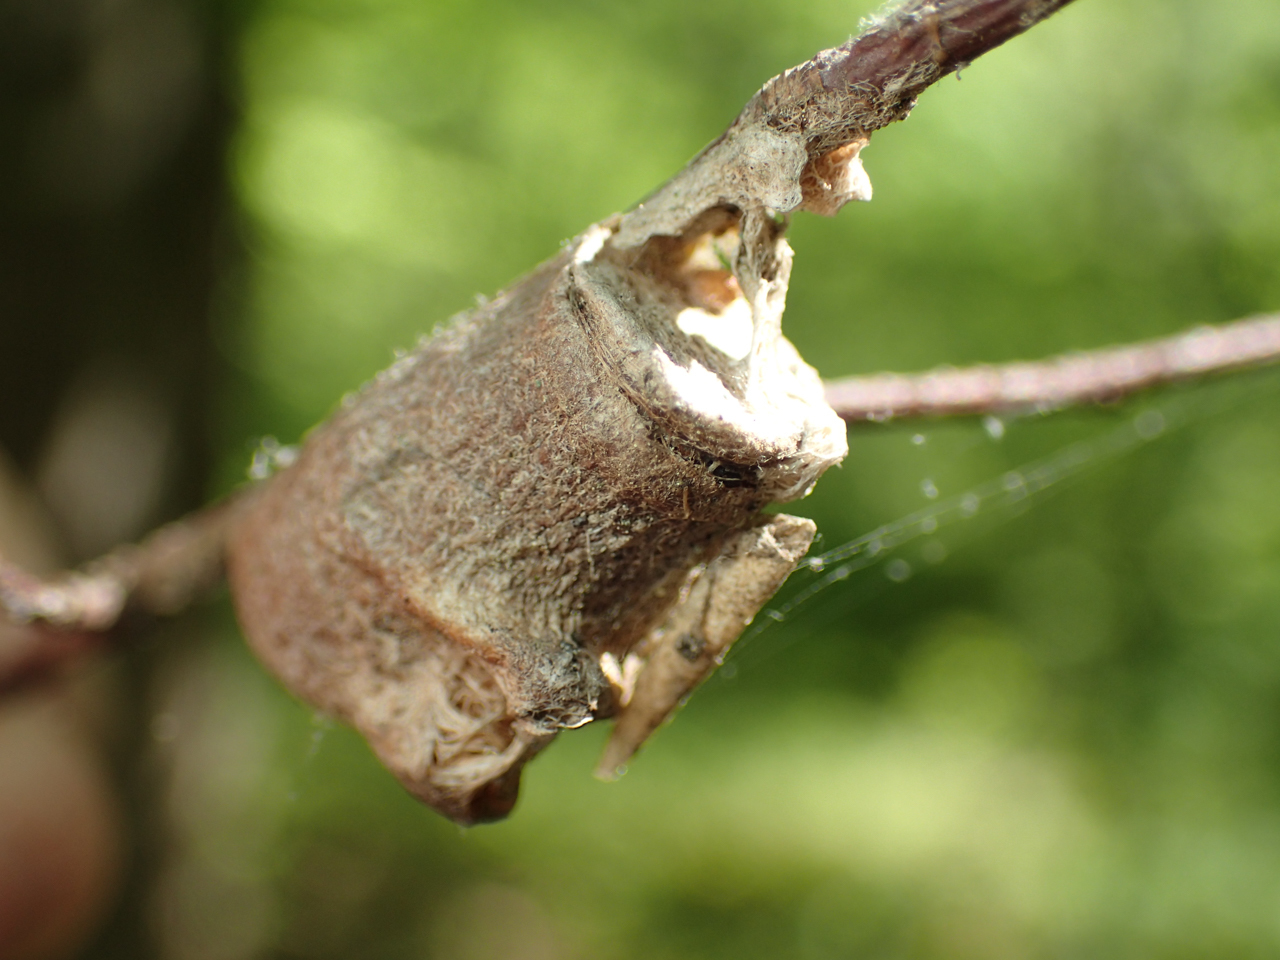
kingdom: Animalia
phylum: Arthropoda
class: Insecta
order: Lepidoptera
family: Megalopygidae
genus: Megalopyge
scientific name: Megalopyge
